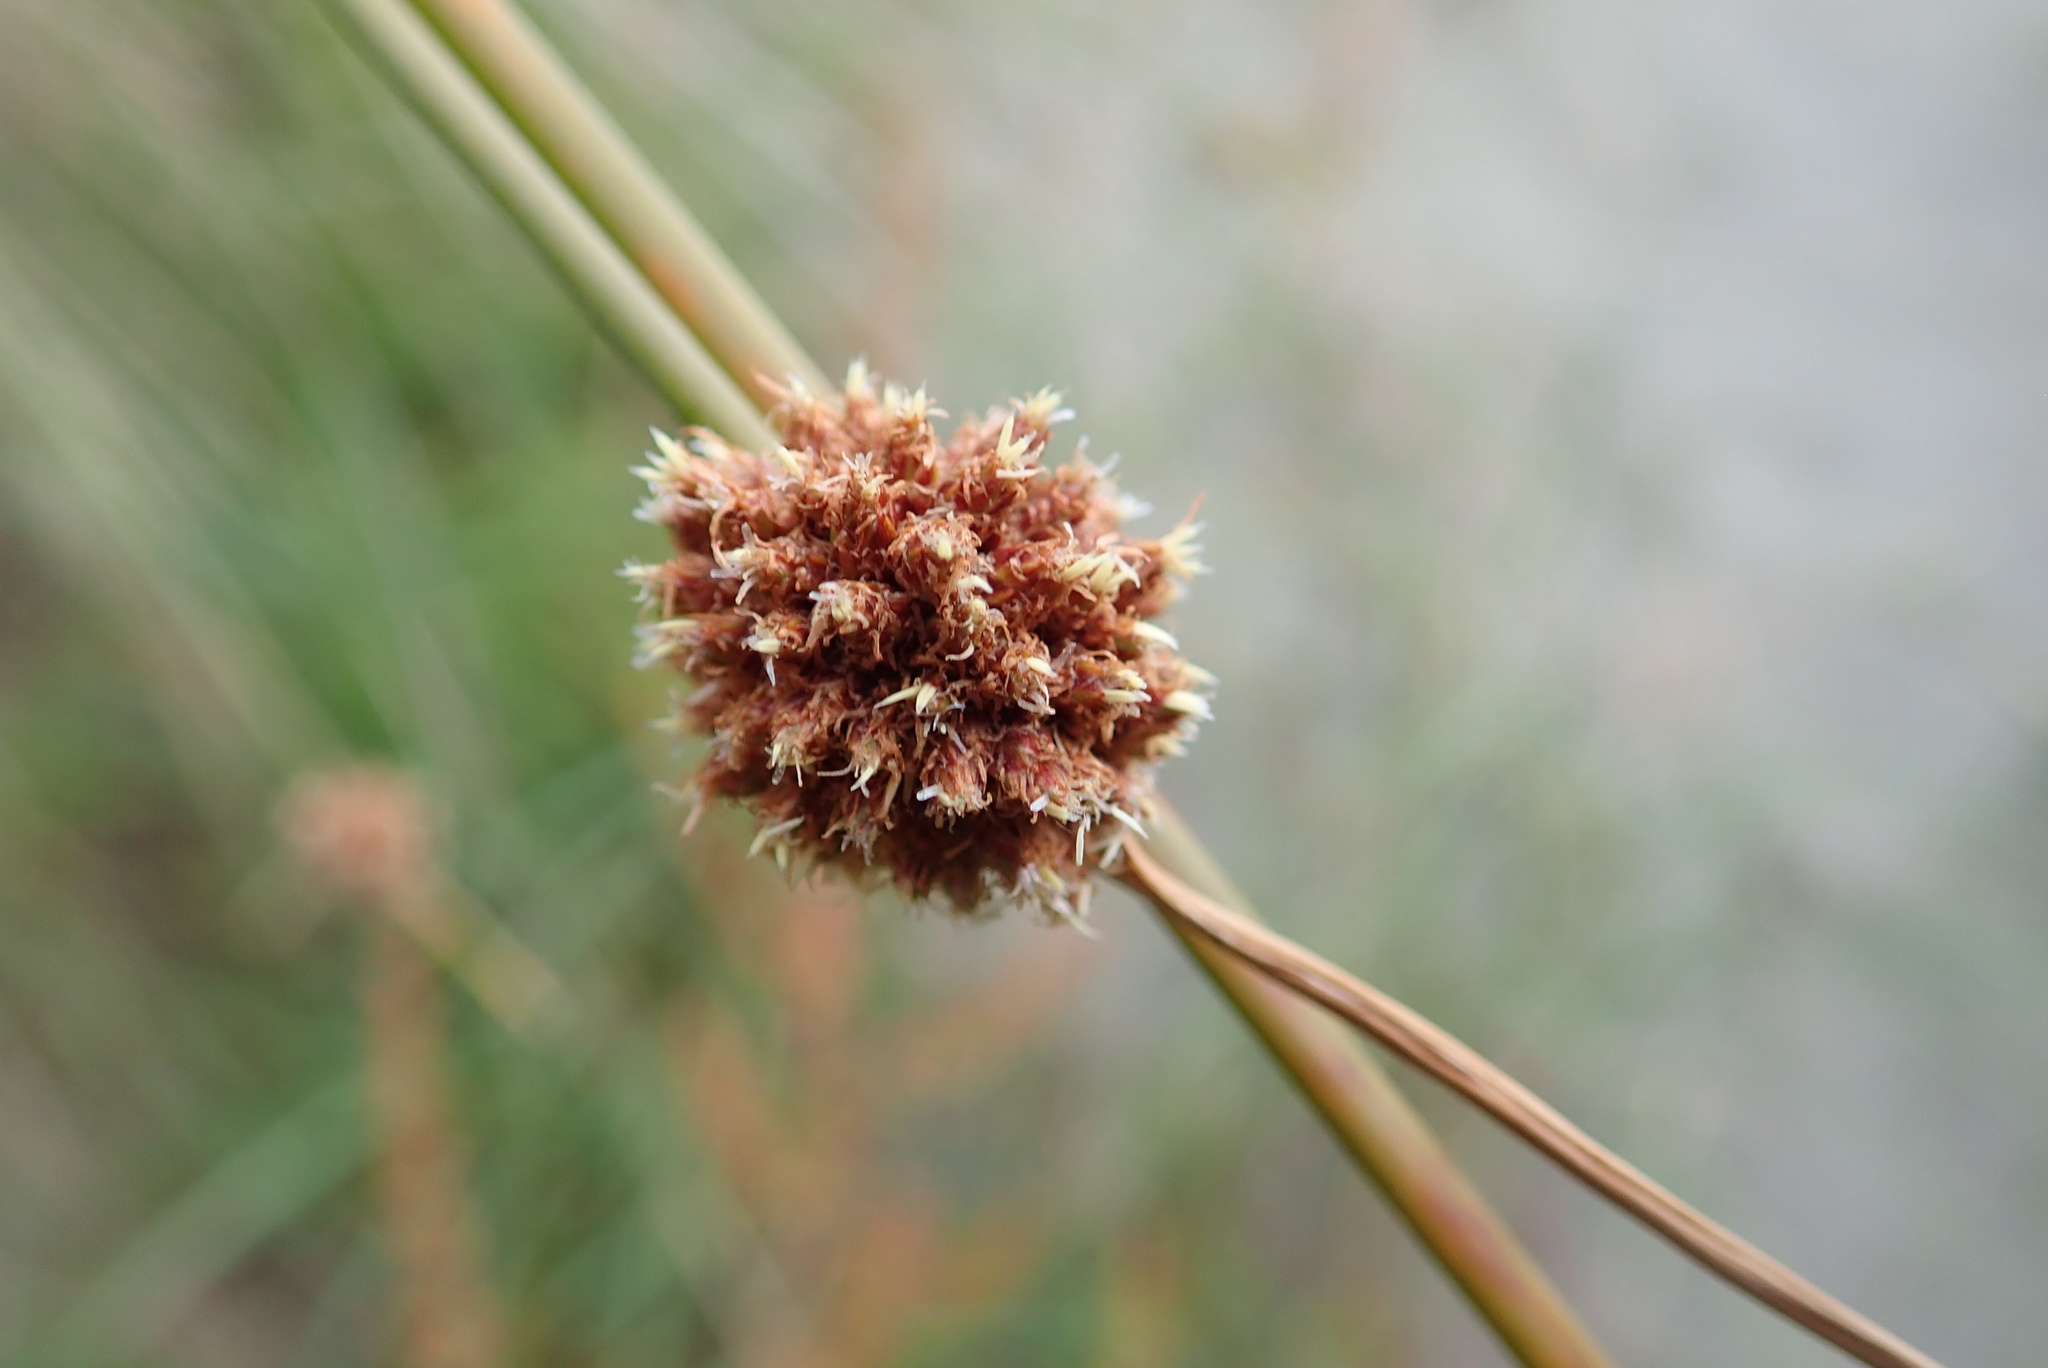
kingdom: Plantae
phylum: Tracheophyta
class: Liliopsida
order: Poales
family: Cyperaceae
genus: Ficinia
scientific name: Ficinia nodosa
